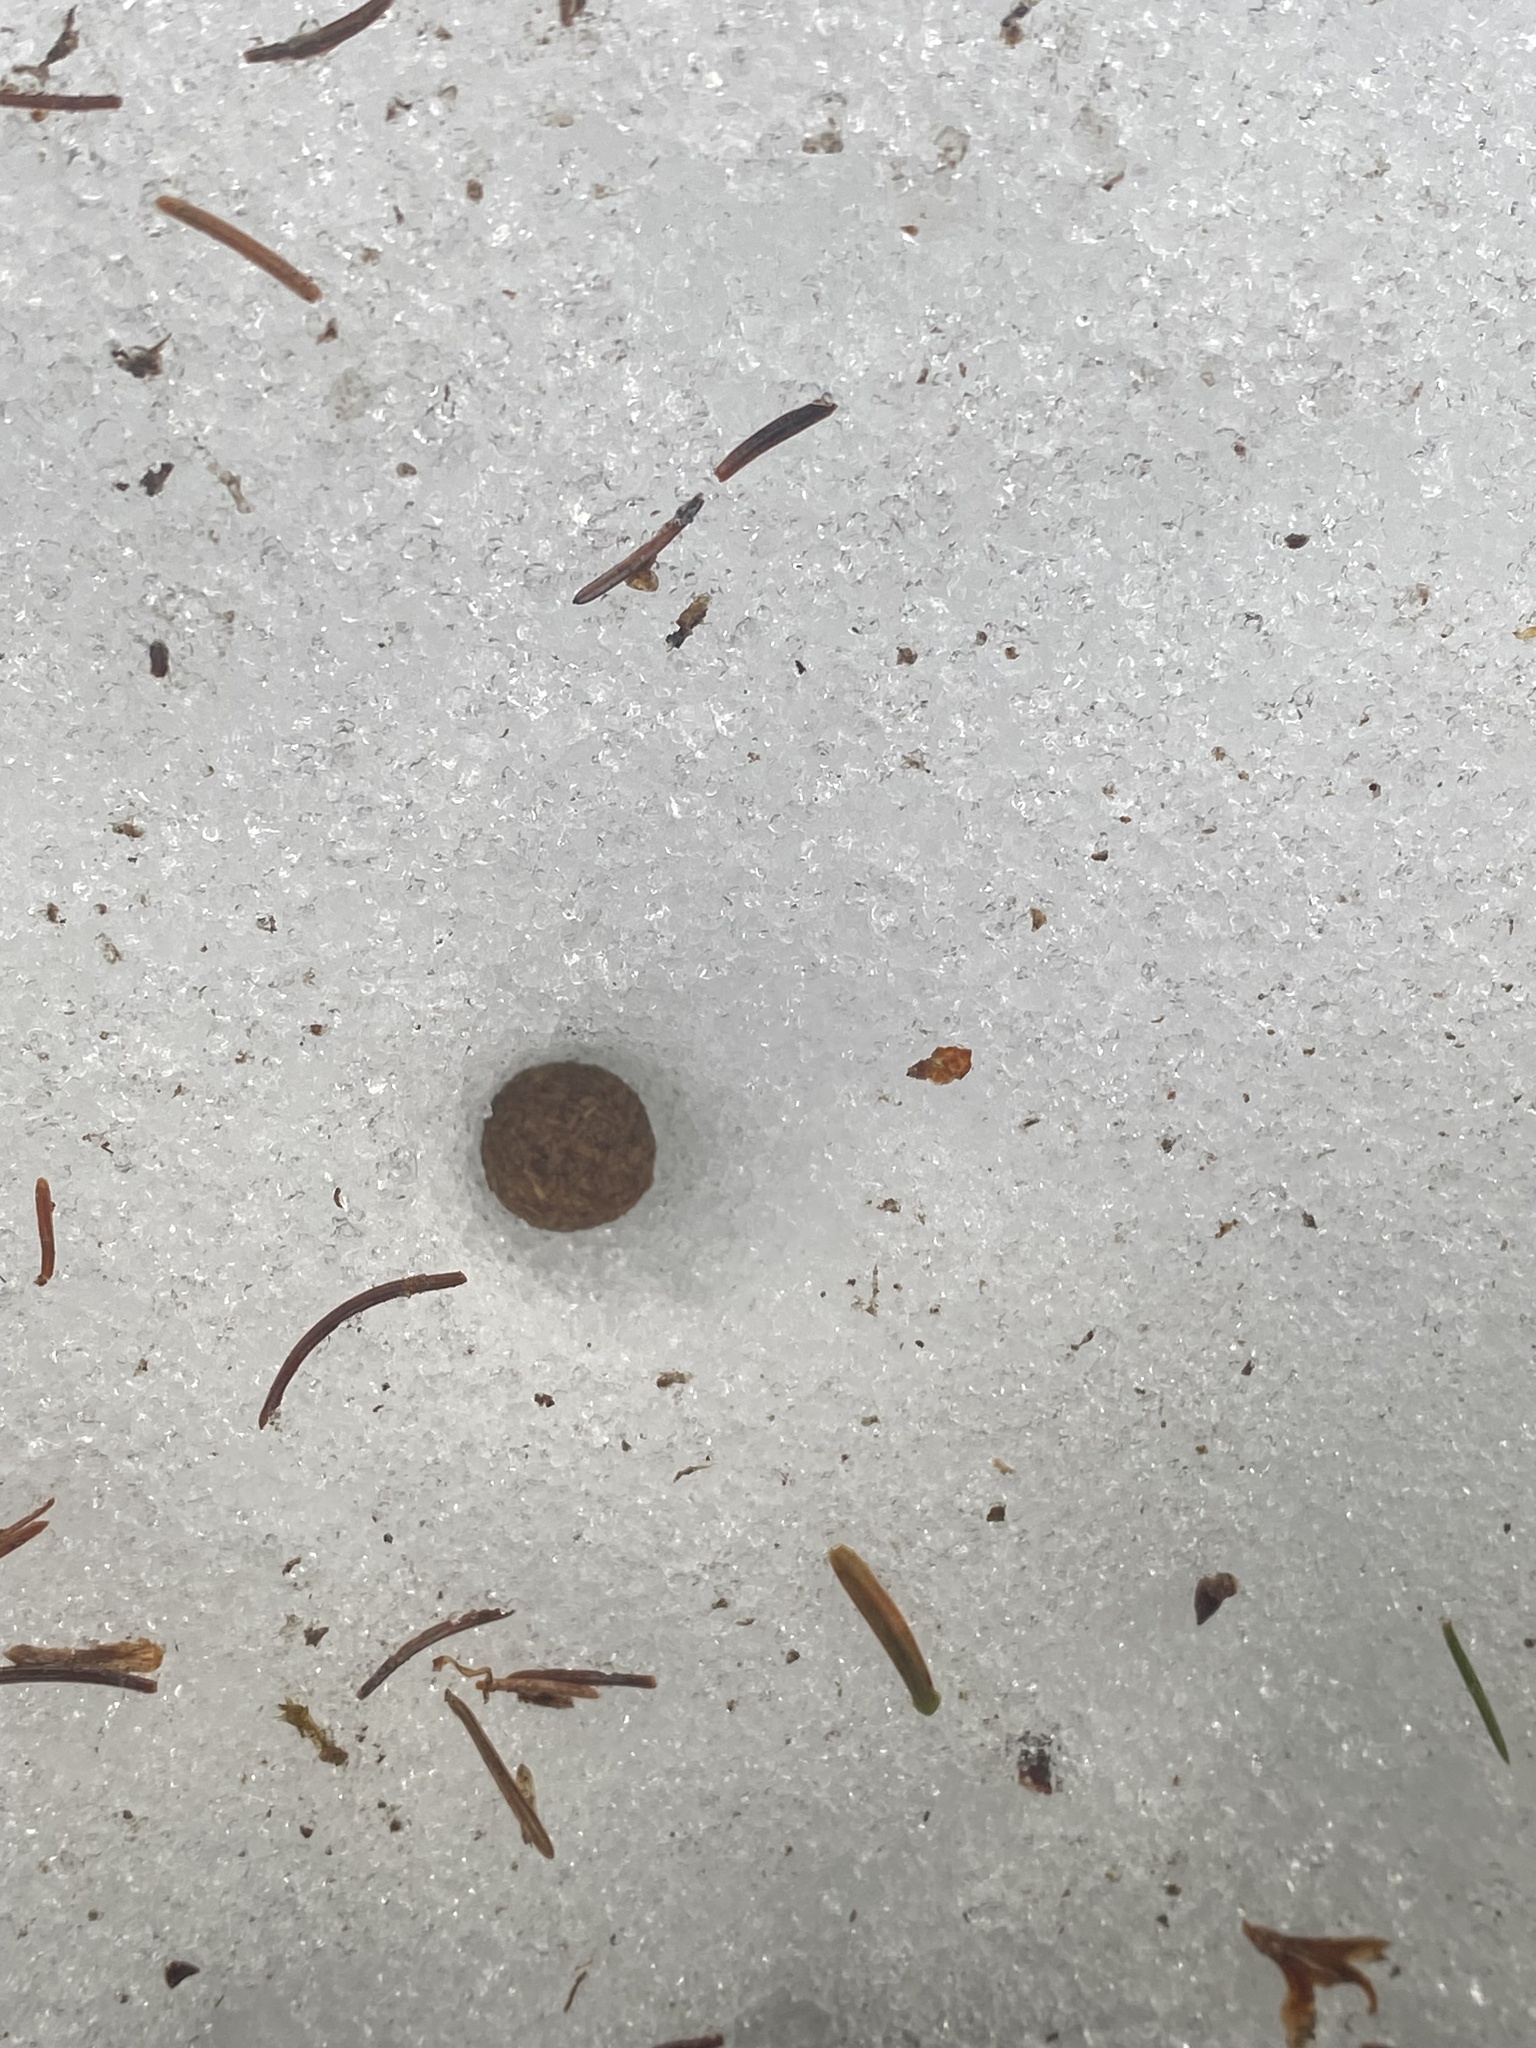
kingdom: Animalia
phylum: Chordata
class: Mammalia
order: Lagomorpha
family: Leporidae
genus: Lepus
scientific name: Lepus americanus
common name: Snowshoe hare
